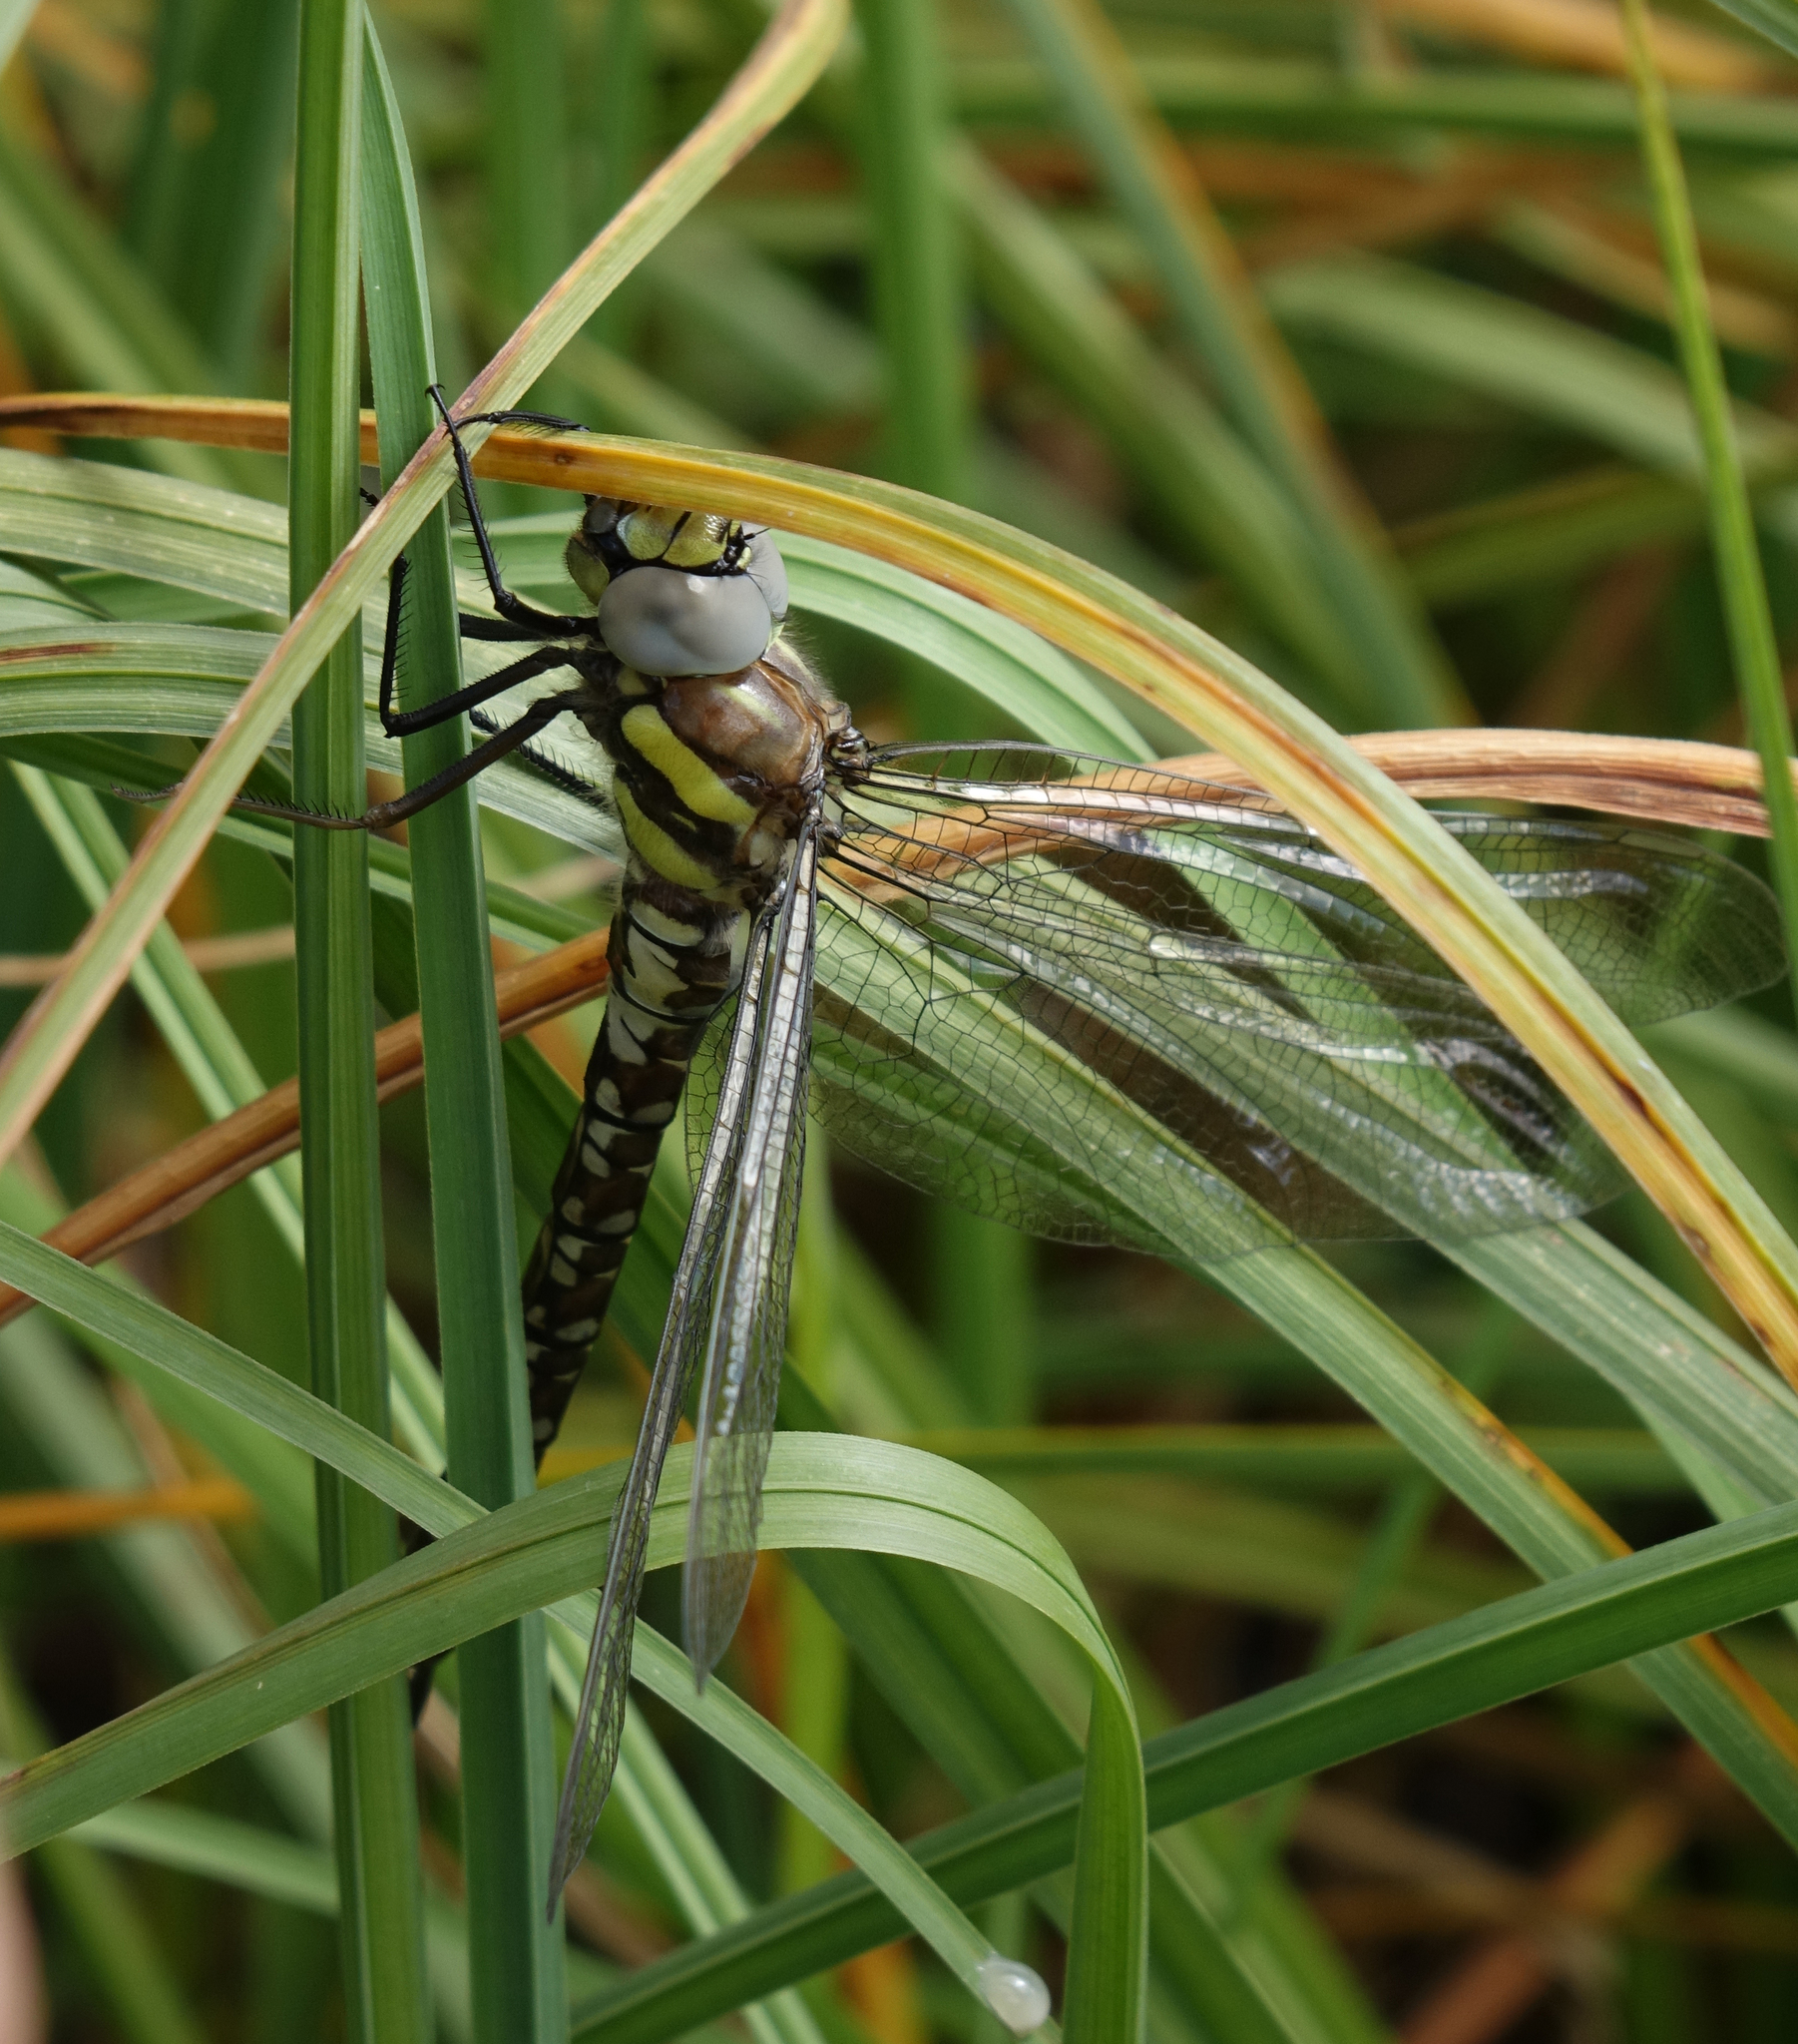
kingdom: Animalia
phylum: Arthropoda
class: Insecta
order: Odonata
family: Aeshnidae
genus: Aeshna
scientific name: Aeshna juncea
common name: Moorland hawker
